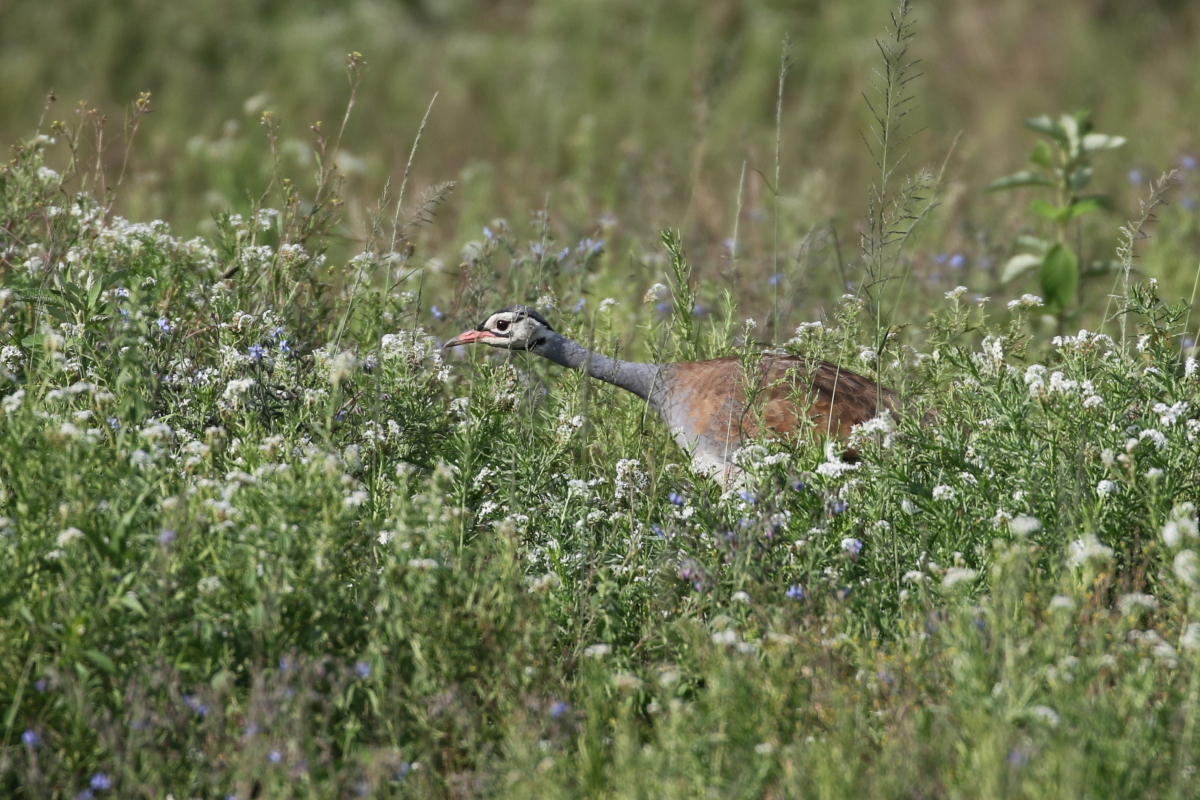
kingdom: Animalia
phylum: Chordata
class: Aves
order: Otidiformes
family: Otididae
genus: Eupodotis
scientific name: Eupodotis senegalensis
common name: White-bellied bustard
